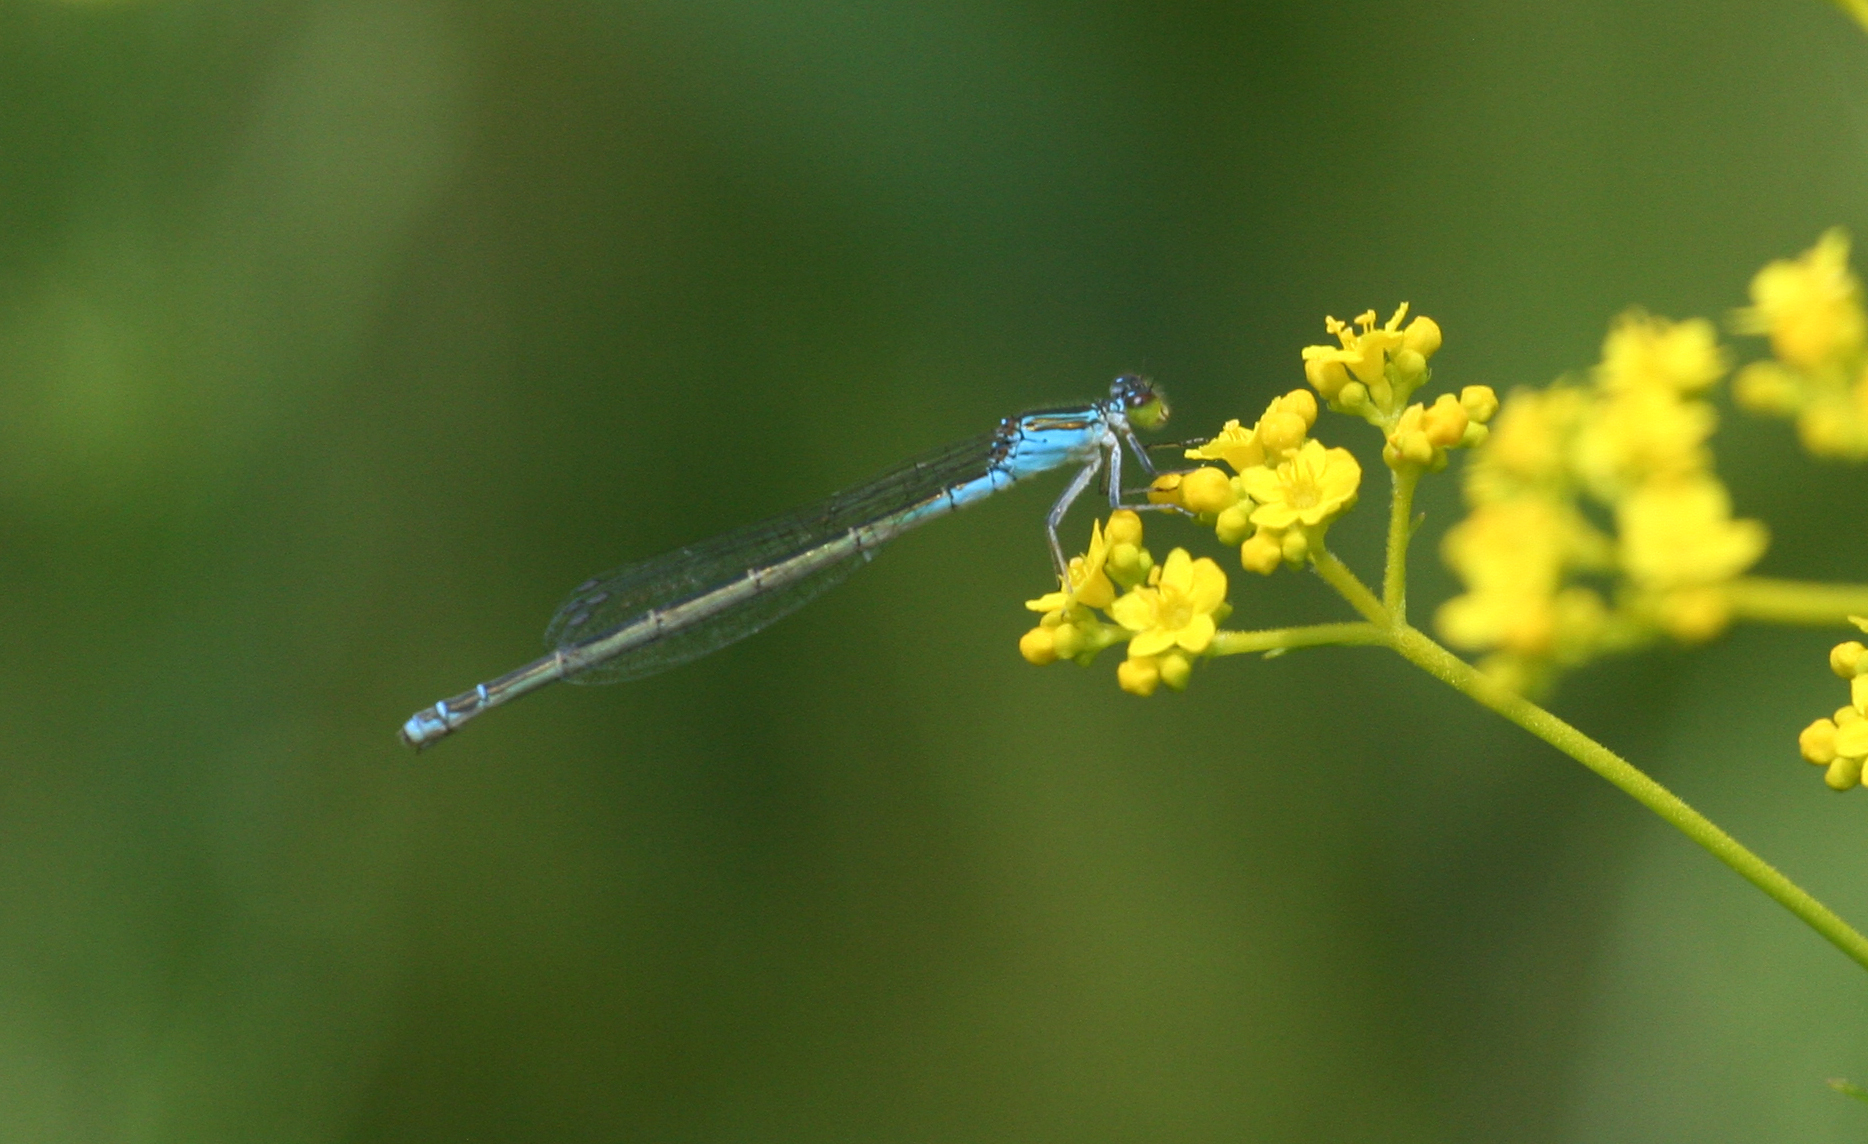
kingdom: Animalia
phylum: Arthropoda
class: Insecta
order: Odonata
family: Coenagrionidae
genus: Paracercion
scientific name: Paracercion calamorum
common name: Dusky lilysquatter
